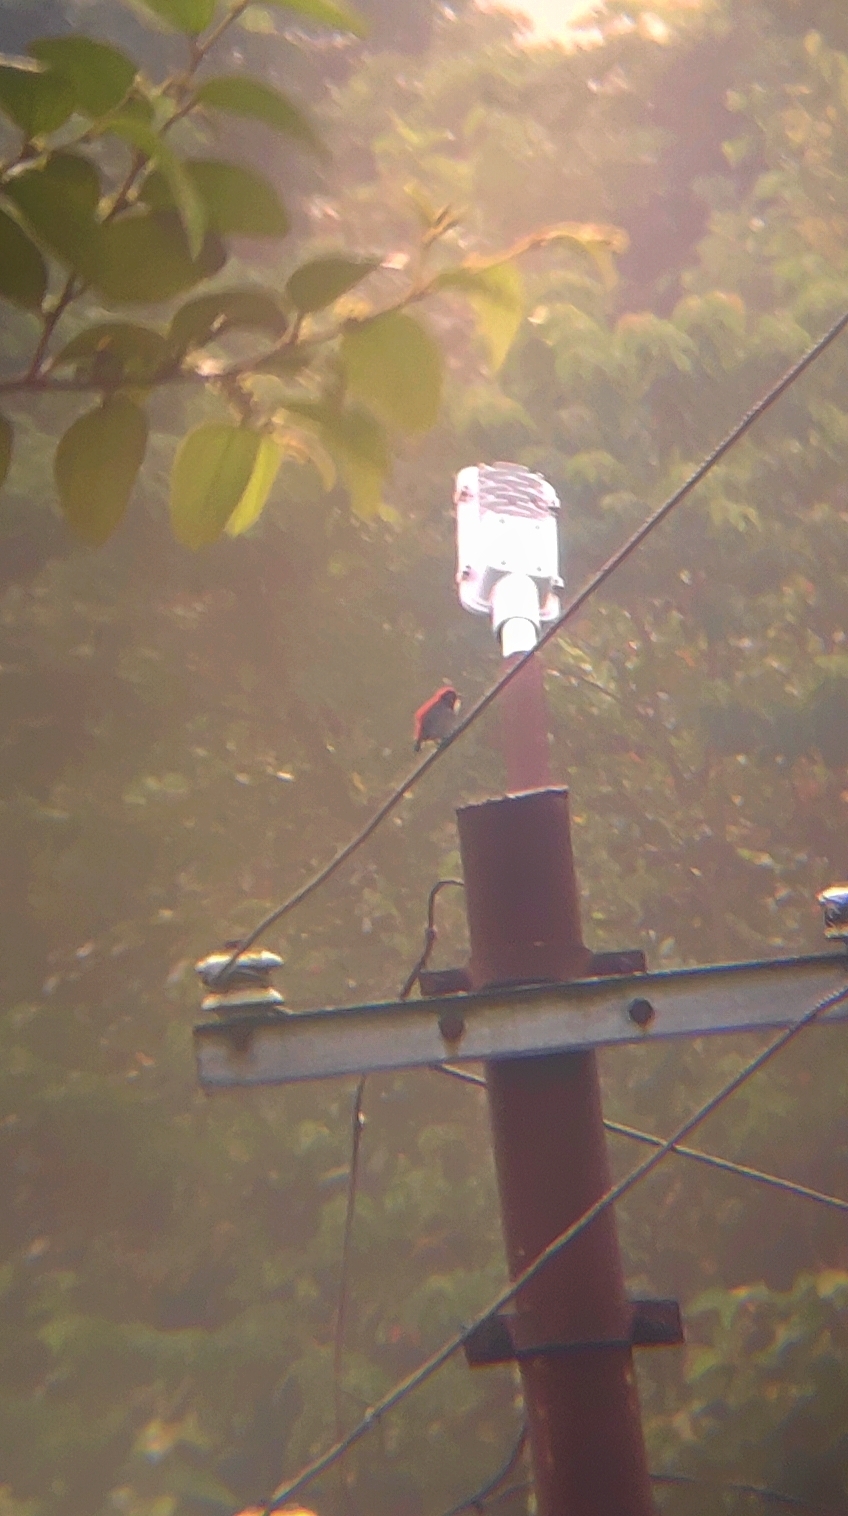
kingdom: Animalia
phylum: Chordata
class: Aves
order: Passeriformes
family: Dicaeidae
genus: Dicaeum
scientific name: Dicaeum cruentatum
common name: Scarlet-backed flowerpecker
